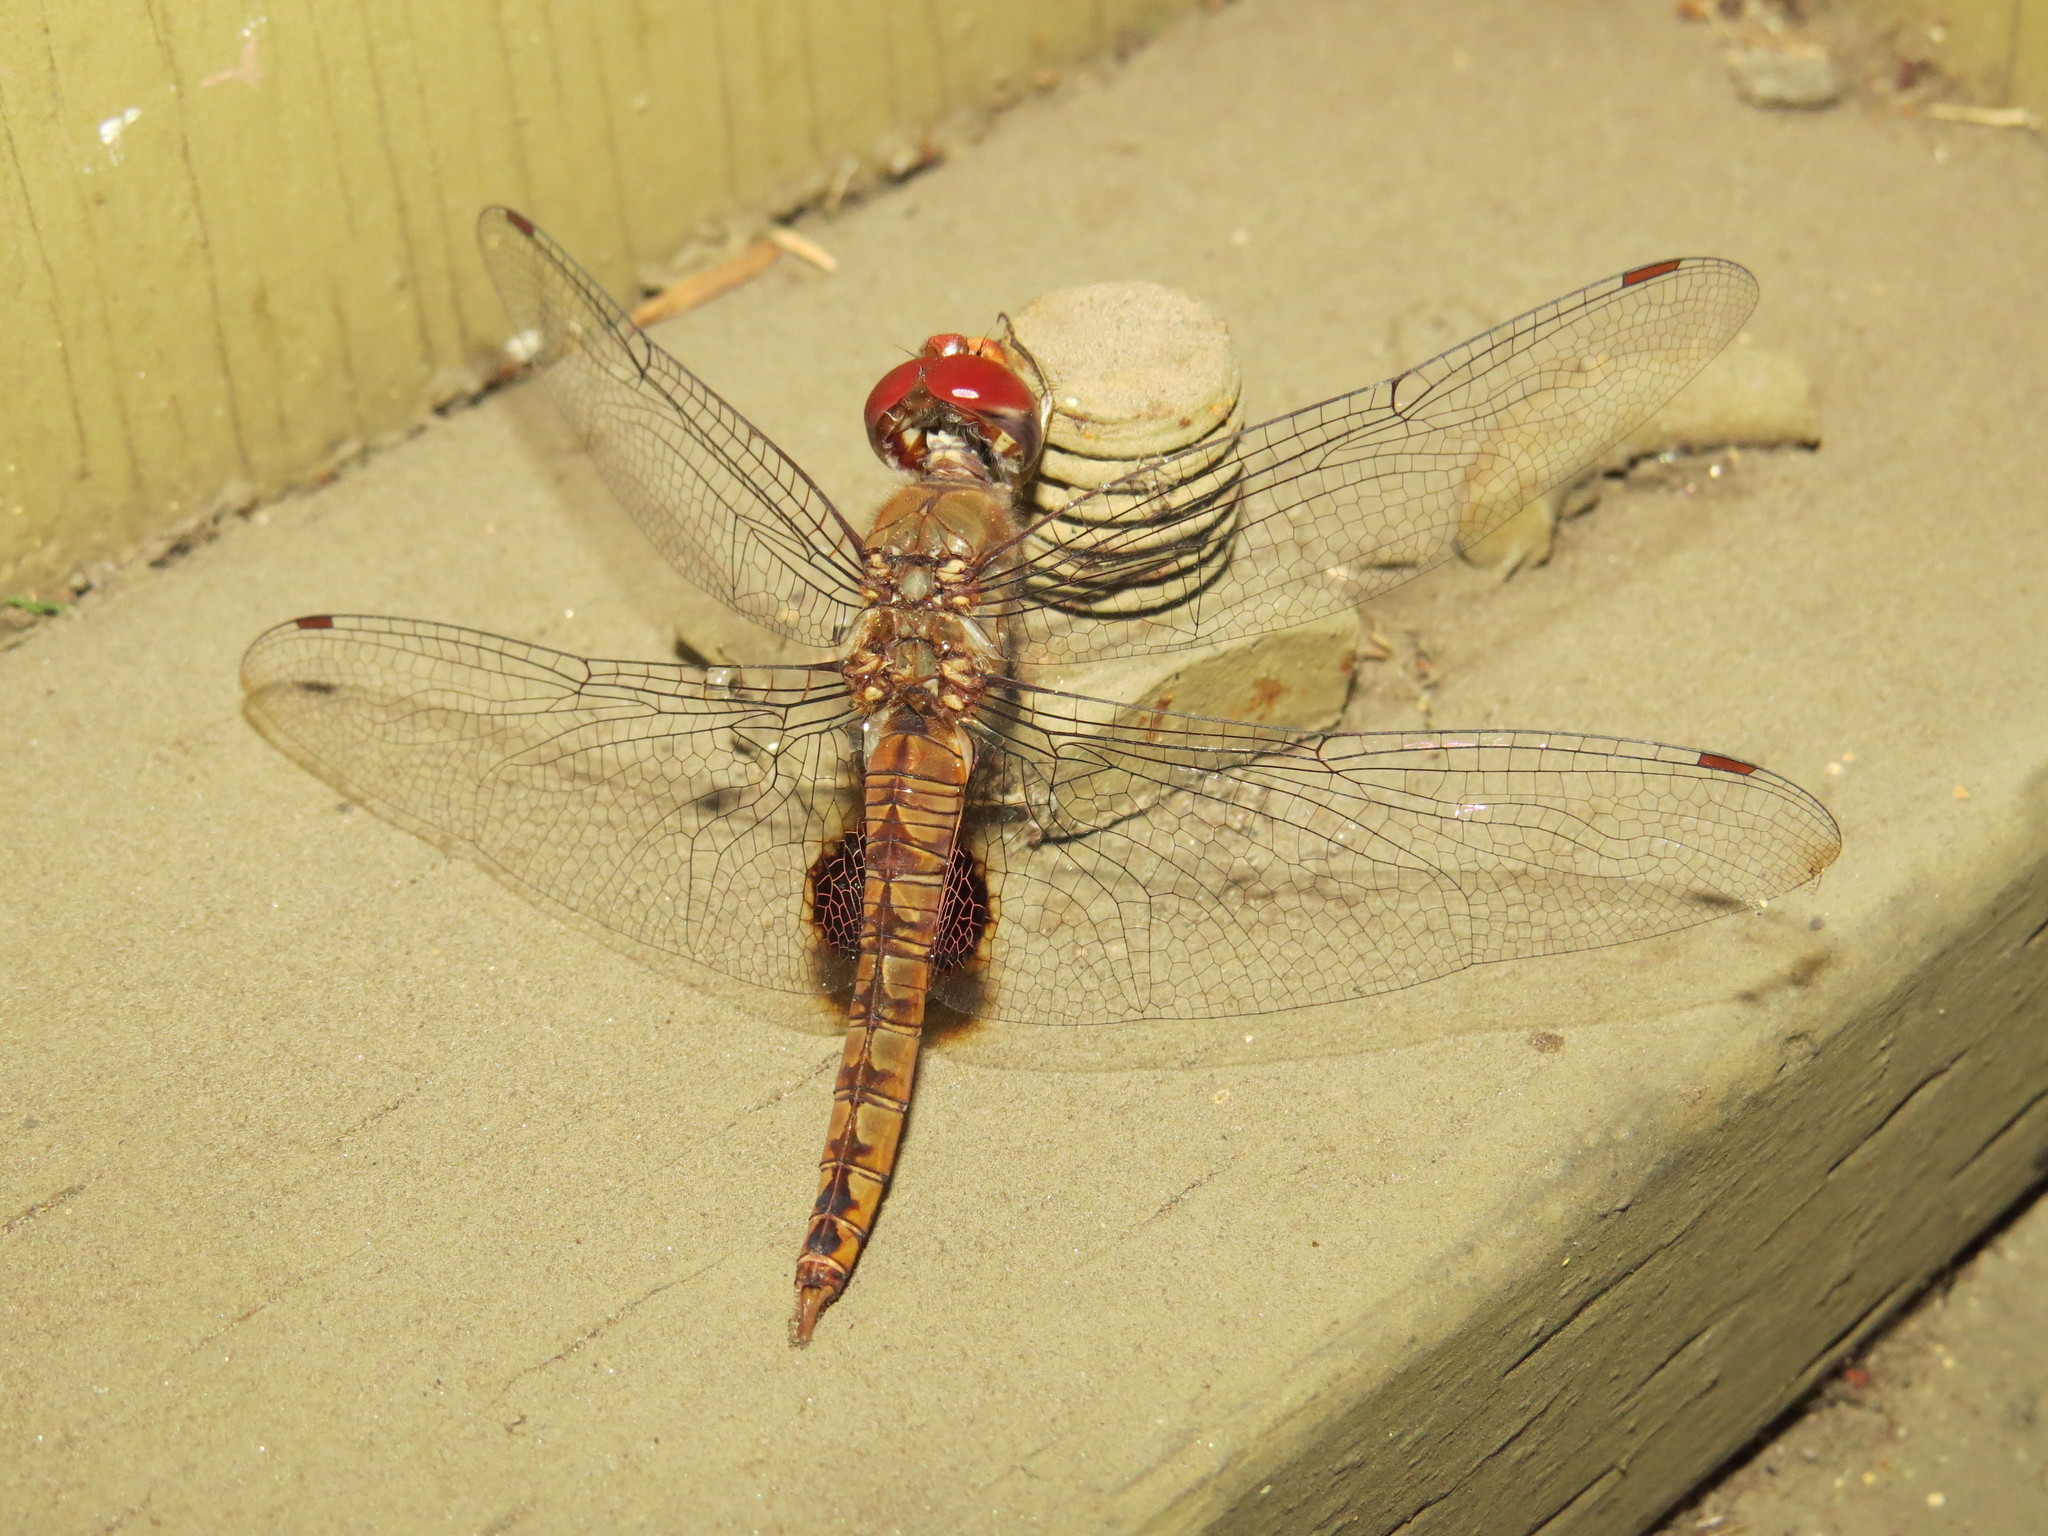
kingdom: Animalia
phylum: Arthropoda
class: Insecta
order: Odonata
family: Libellulidae
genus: Pantala
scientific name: Pantala hymenaea
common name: Spot-winged glider
